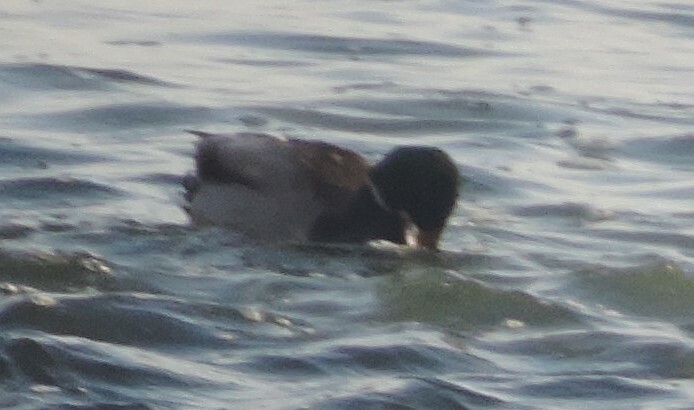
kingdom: Animalia
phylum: Chordata
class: Aves
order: Anseriformes
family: Anatidae
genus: Anas
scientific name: Anas platyrhynchos
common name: Mallard
